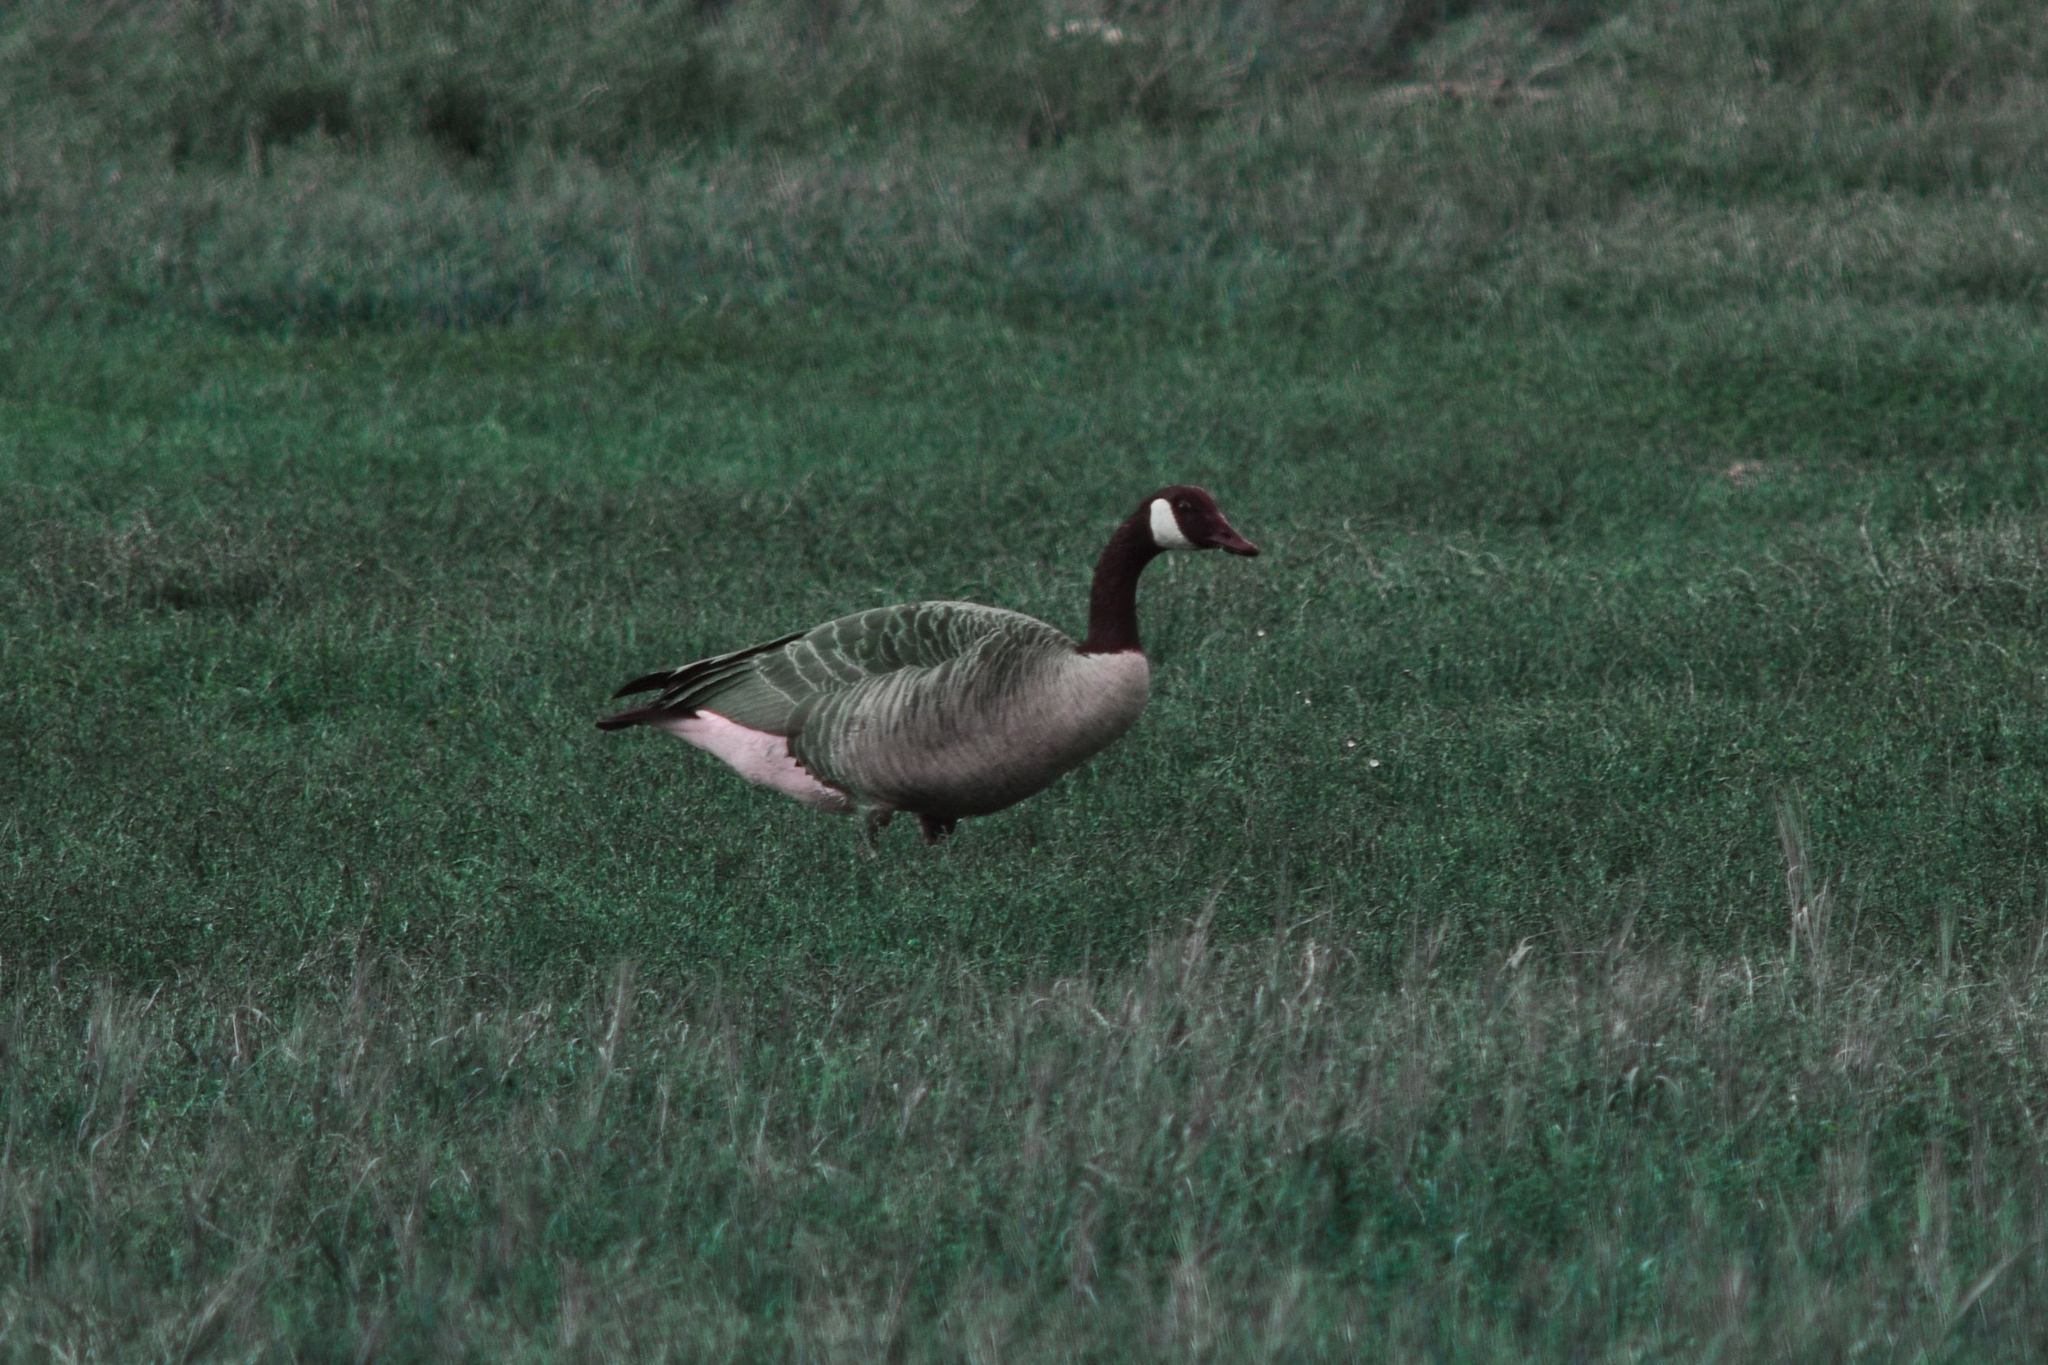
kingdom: Animalia
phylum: Chordata
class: Aves
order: Anseriformes
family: Anatidae
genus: Branta
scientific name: Branta canadensis
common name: Canada goose
